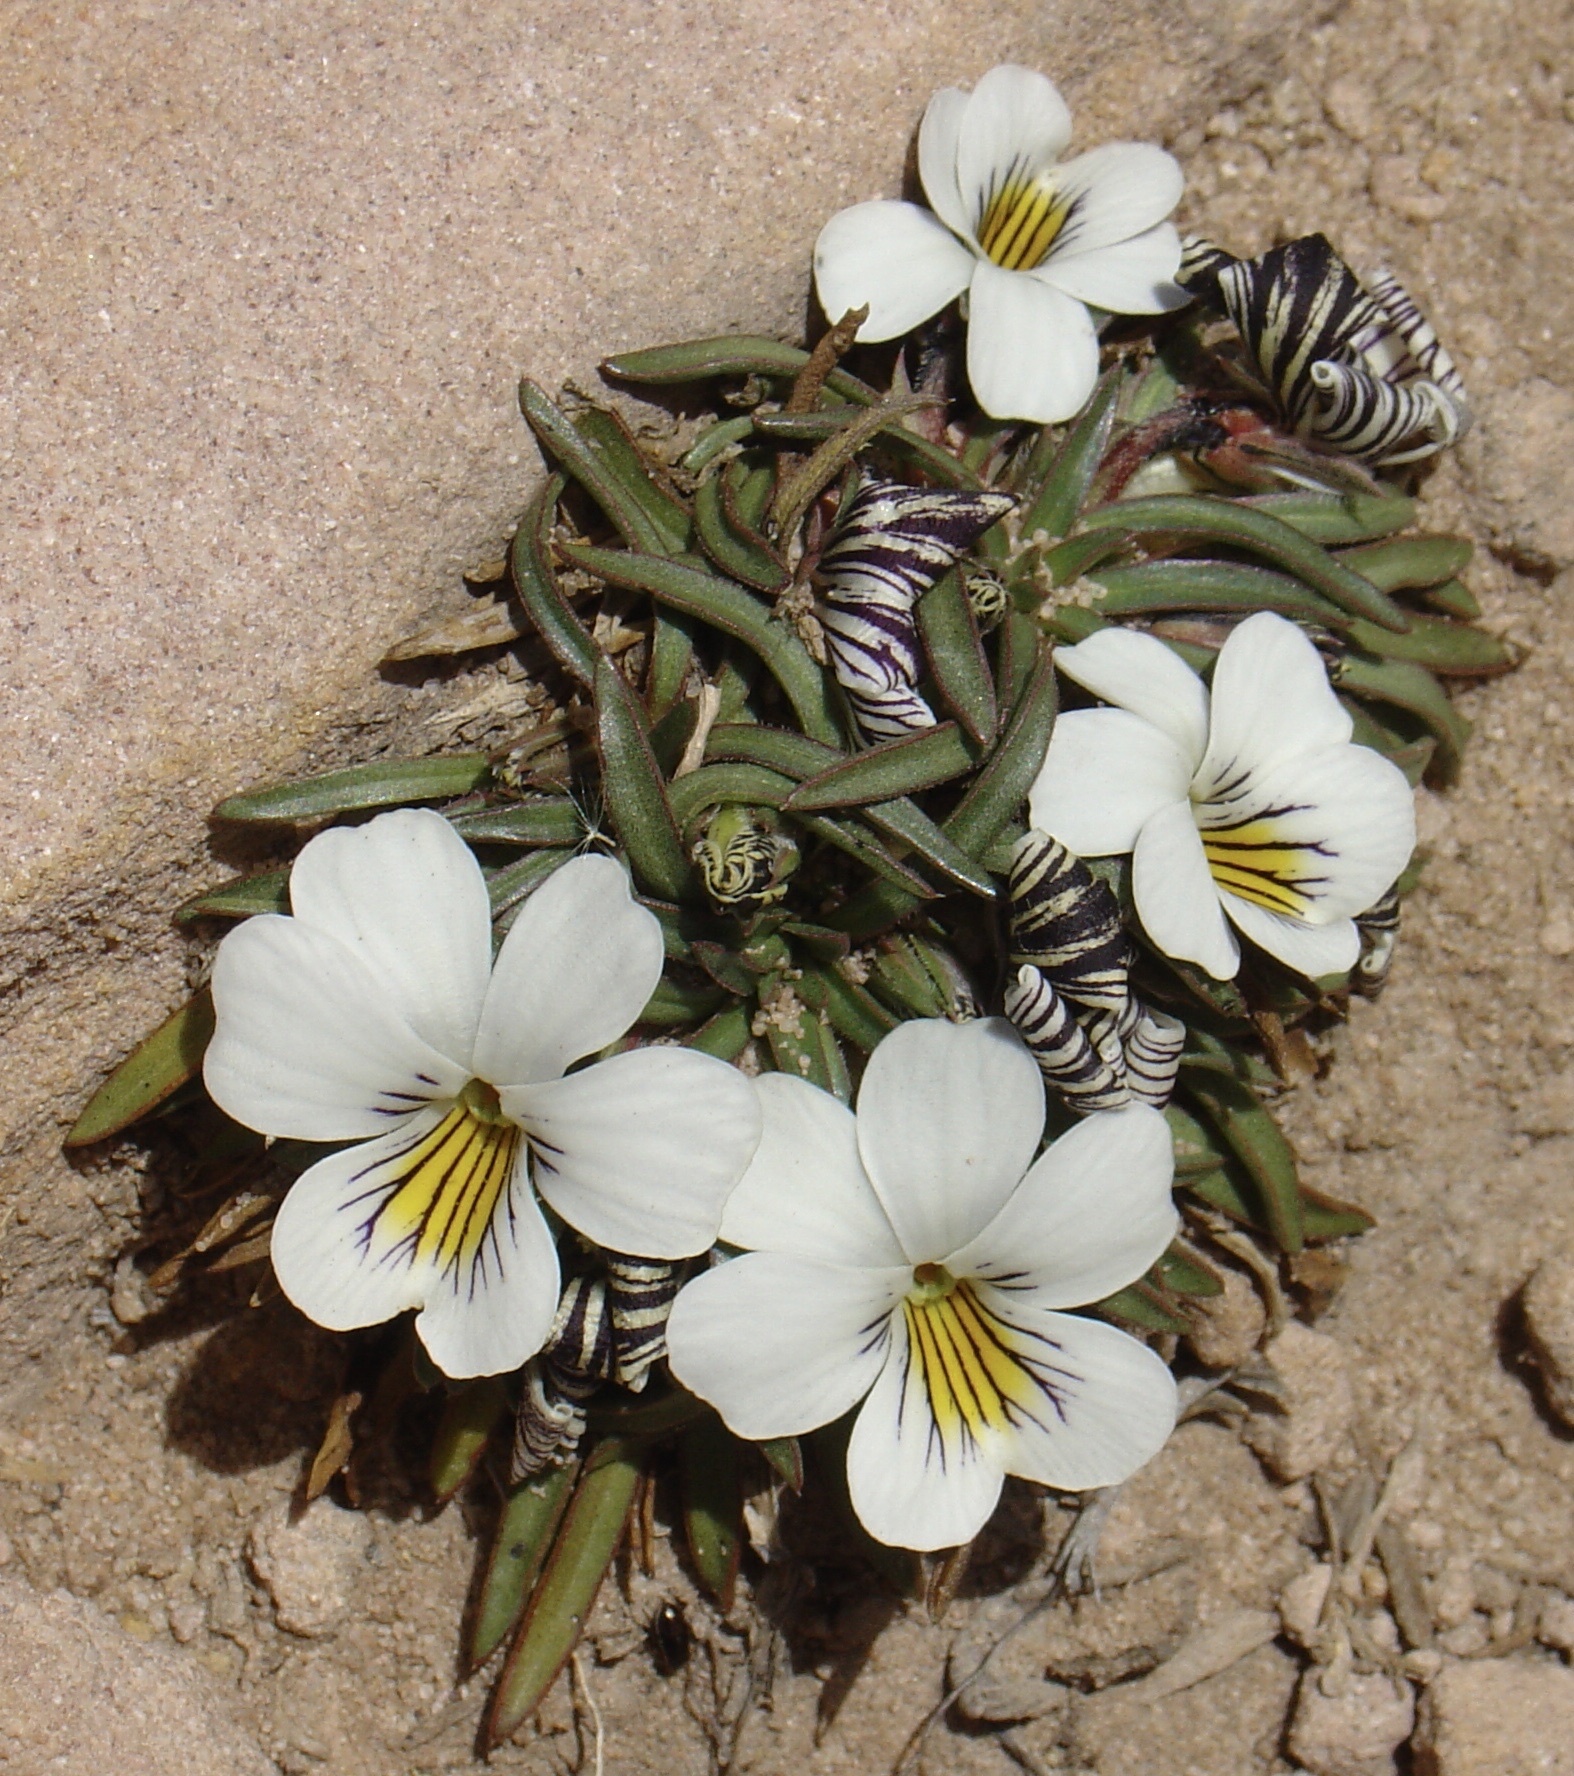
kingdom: Plantae
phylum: Tracheophyta
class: Magnoliopsida
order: Malpighiales
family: Violaceae
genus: Viola
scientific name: Viola pygmaea
